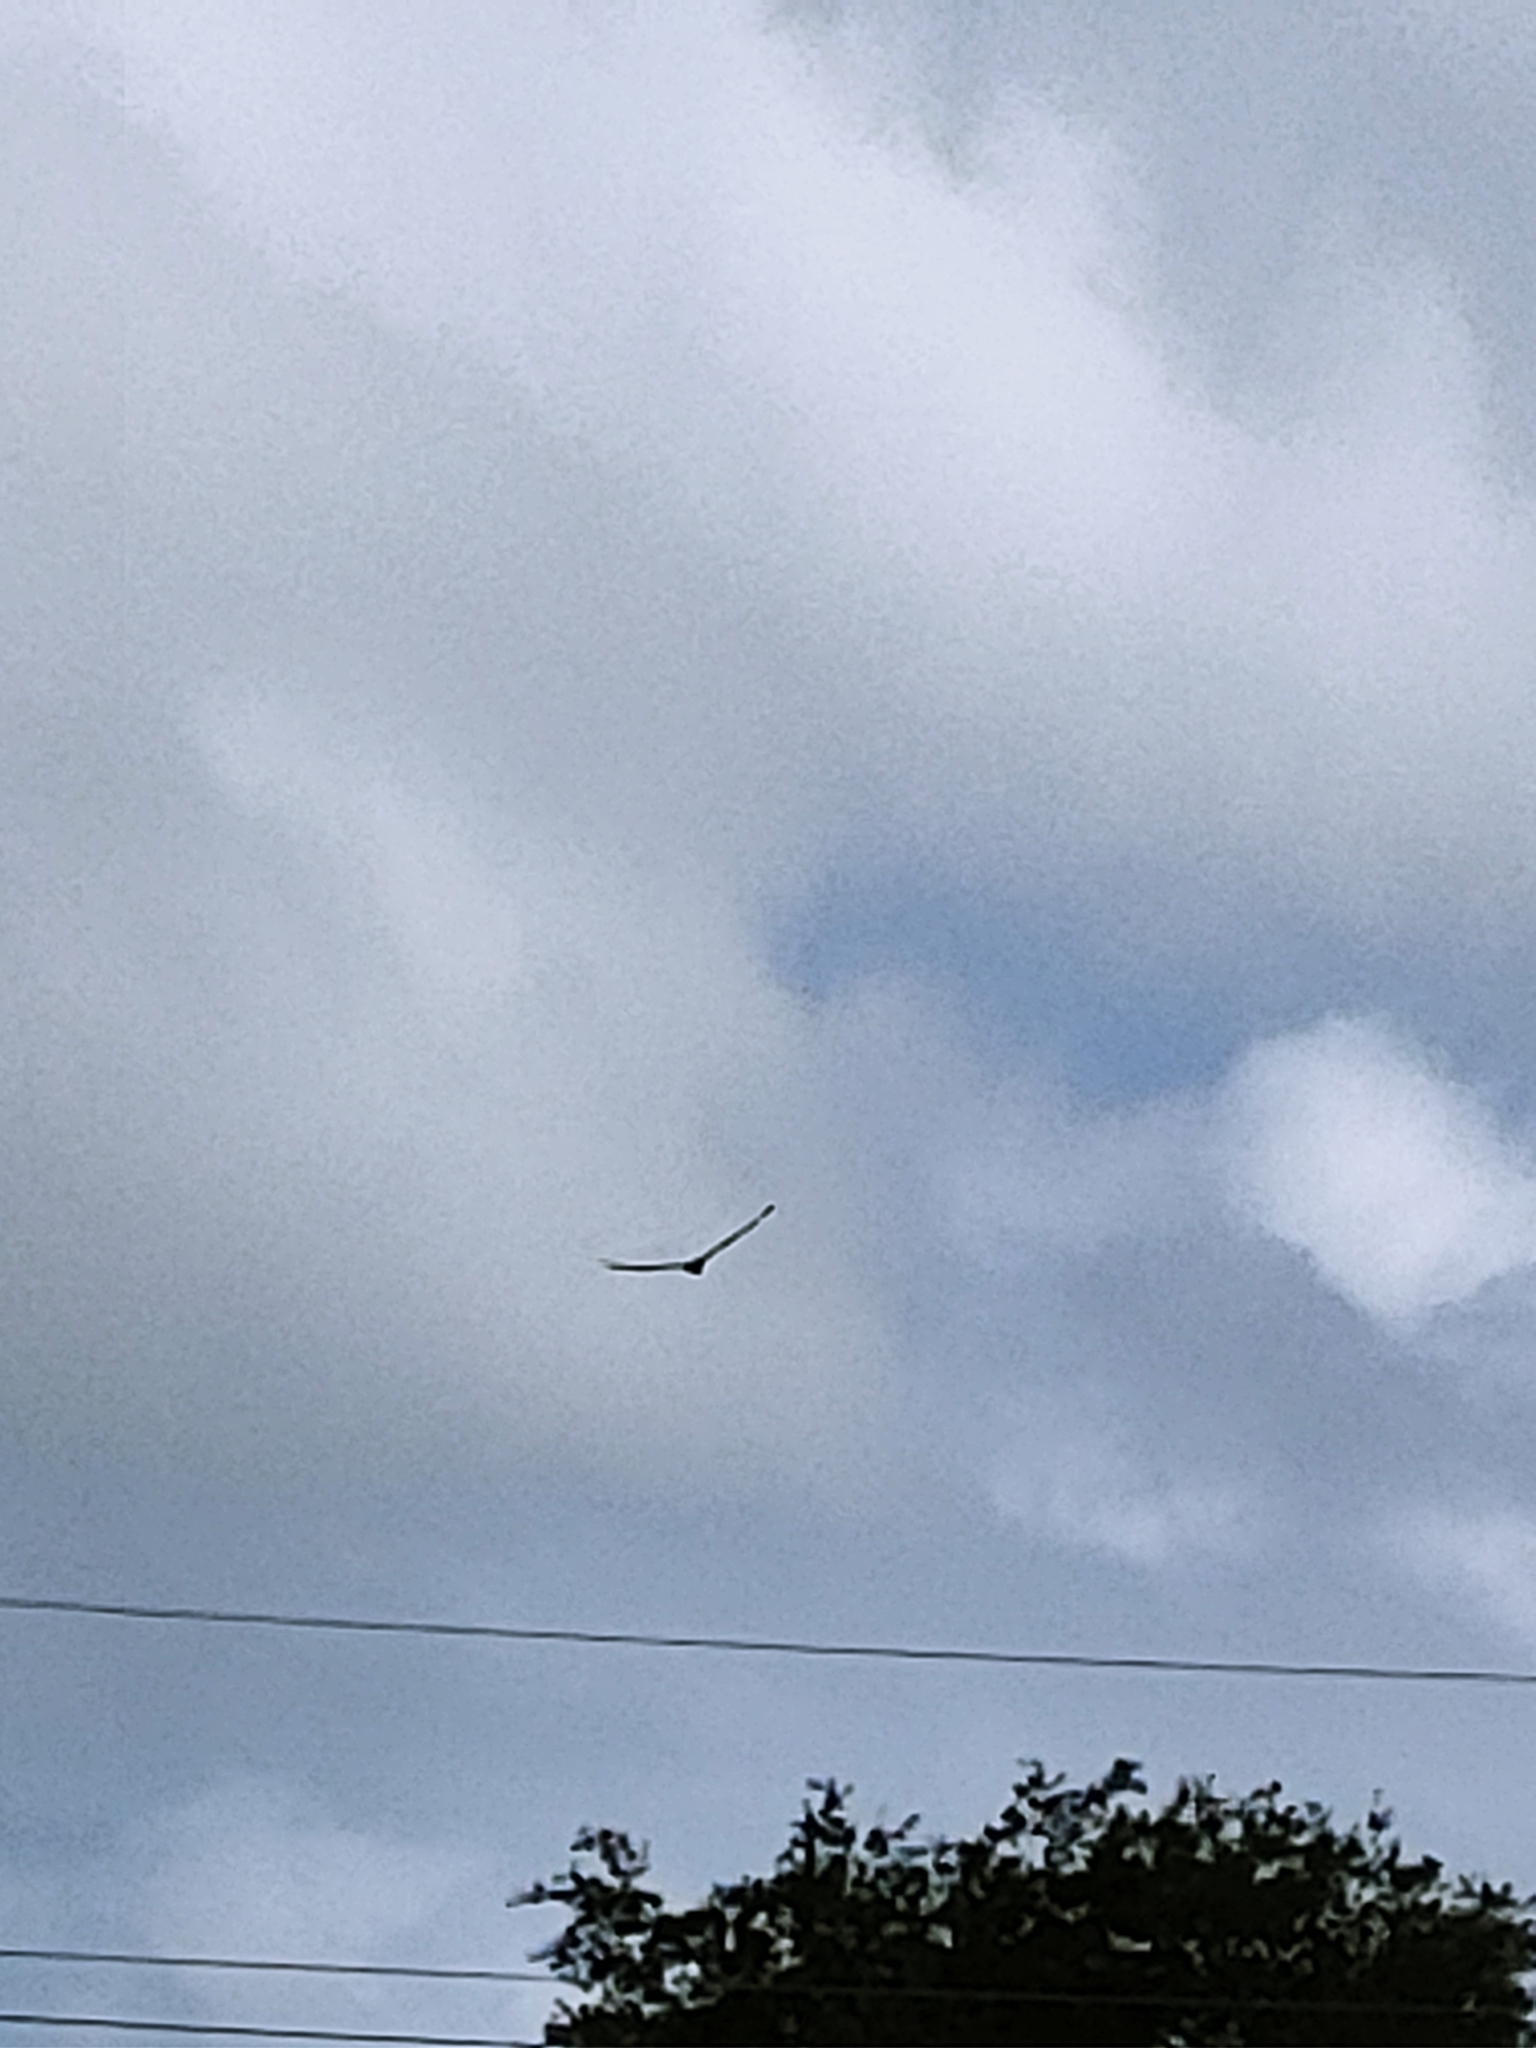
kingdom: Animalia
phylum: Chordata
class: Aves
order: Accipitriformes
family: Cathartidae
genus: Cathartes
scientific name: Cathartes aura
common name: Turkey vulture
